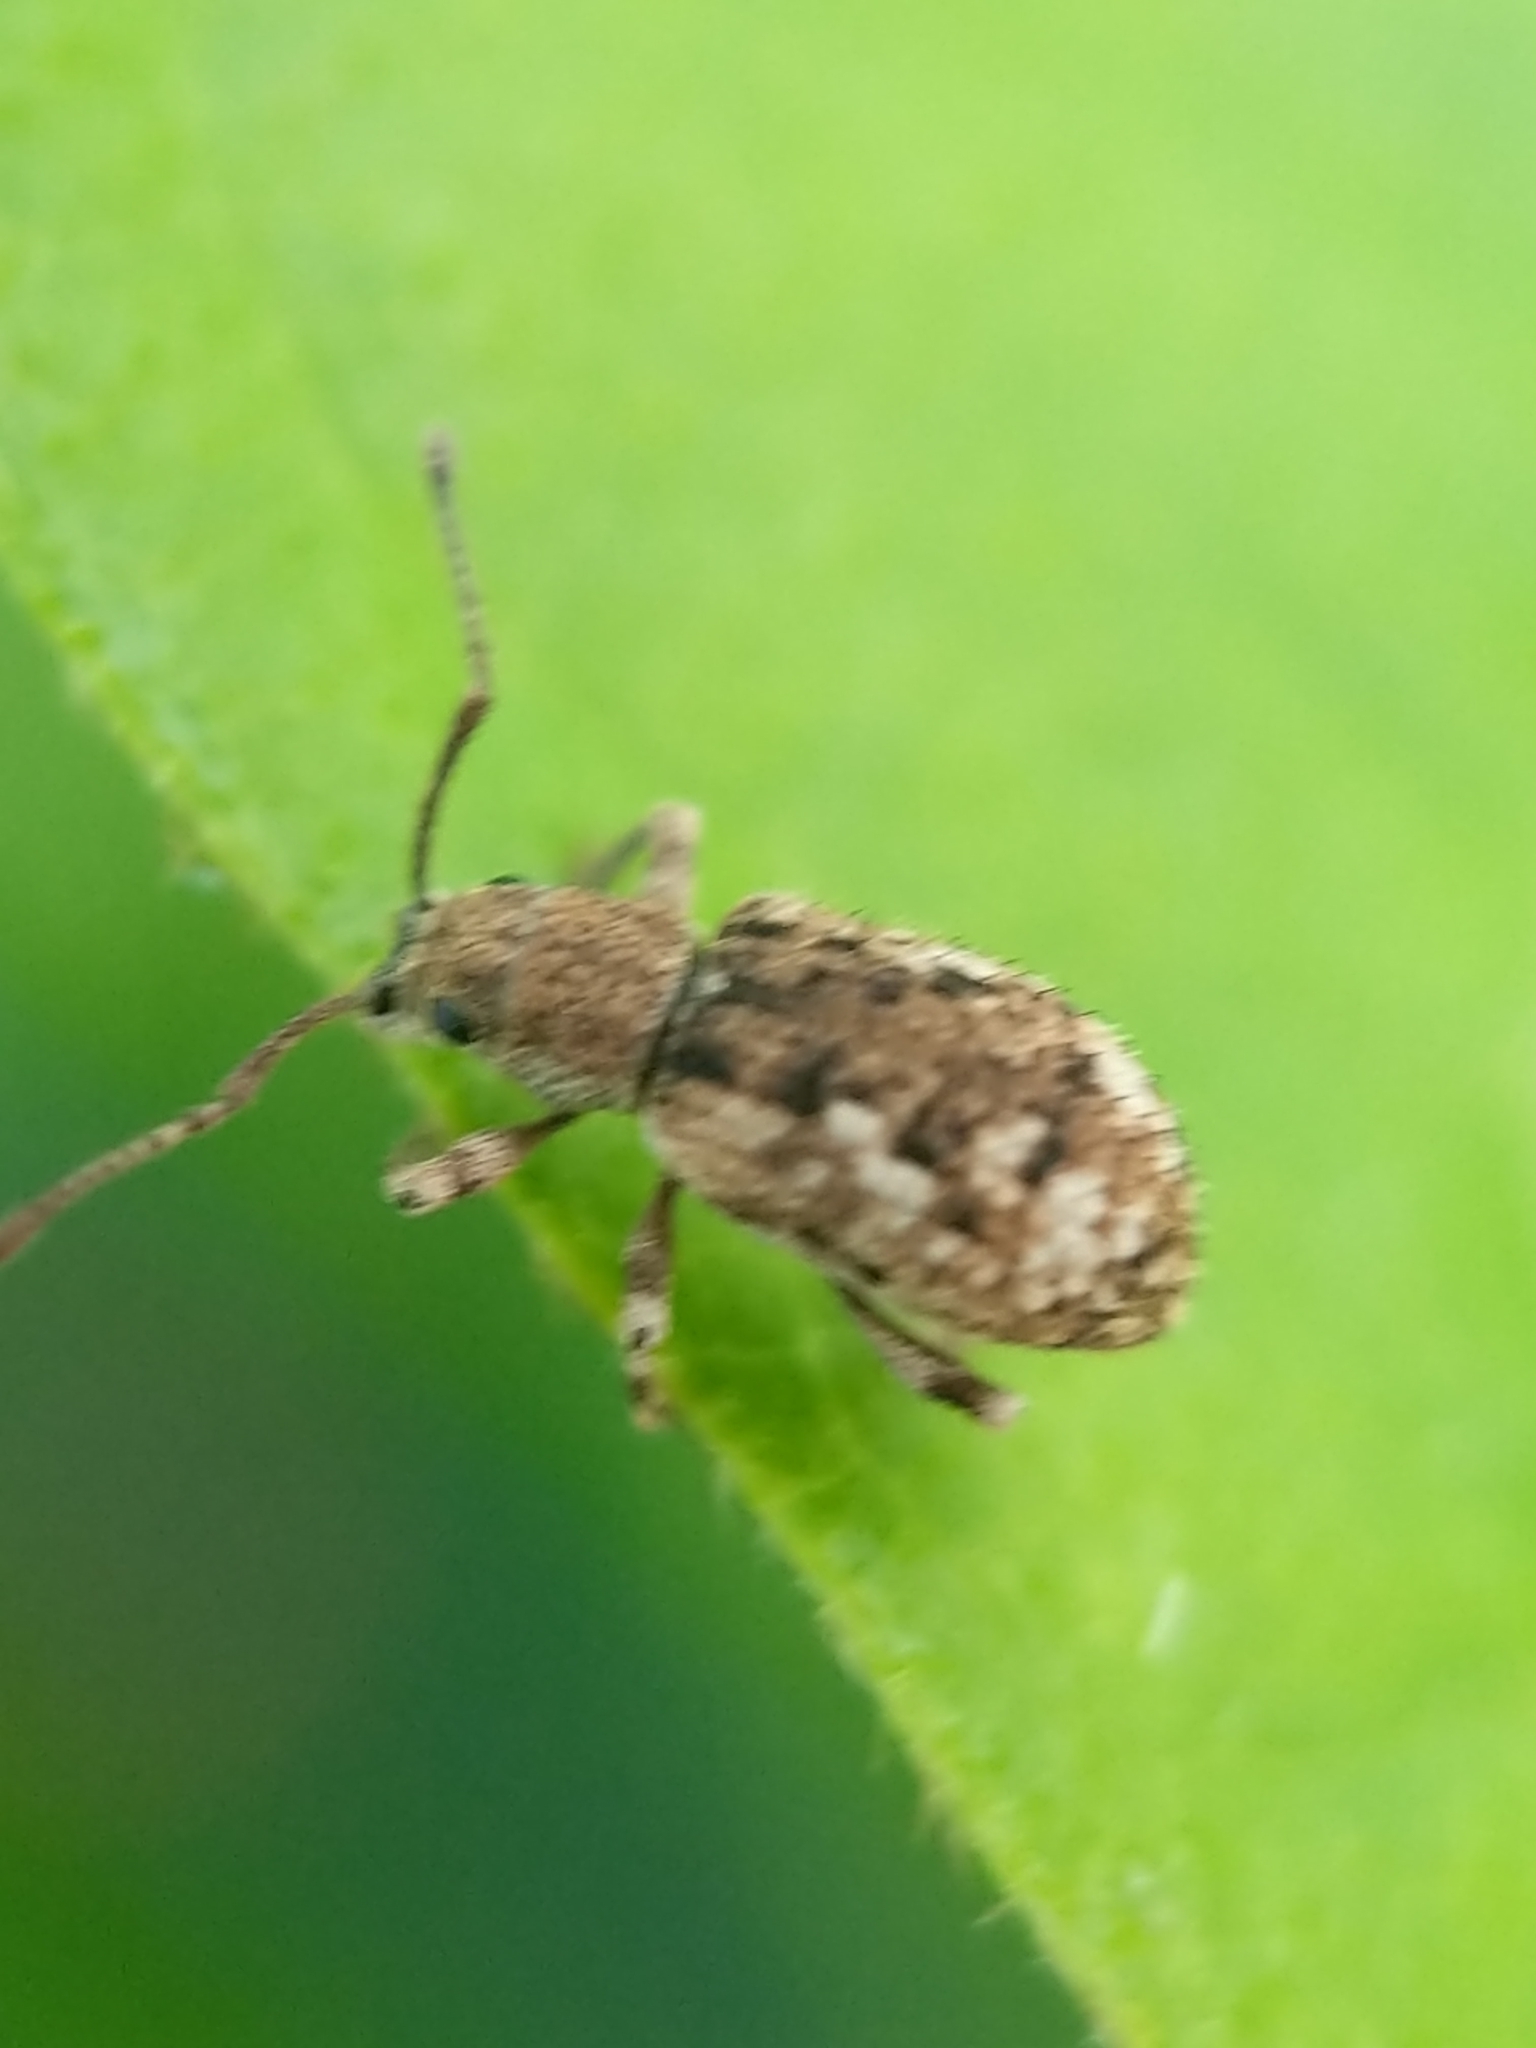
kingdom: Animalia
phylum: Arthropoda
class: Insecta
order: Coleoptera
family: Curculionidae
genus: Pseudoedophrys
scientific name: Pseudoedophrys hilleri
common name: Weevil
